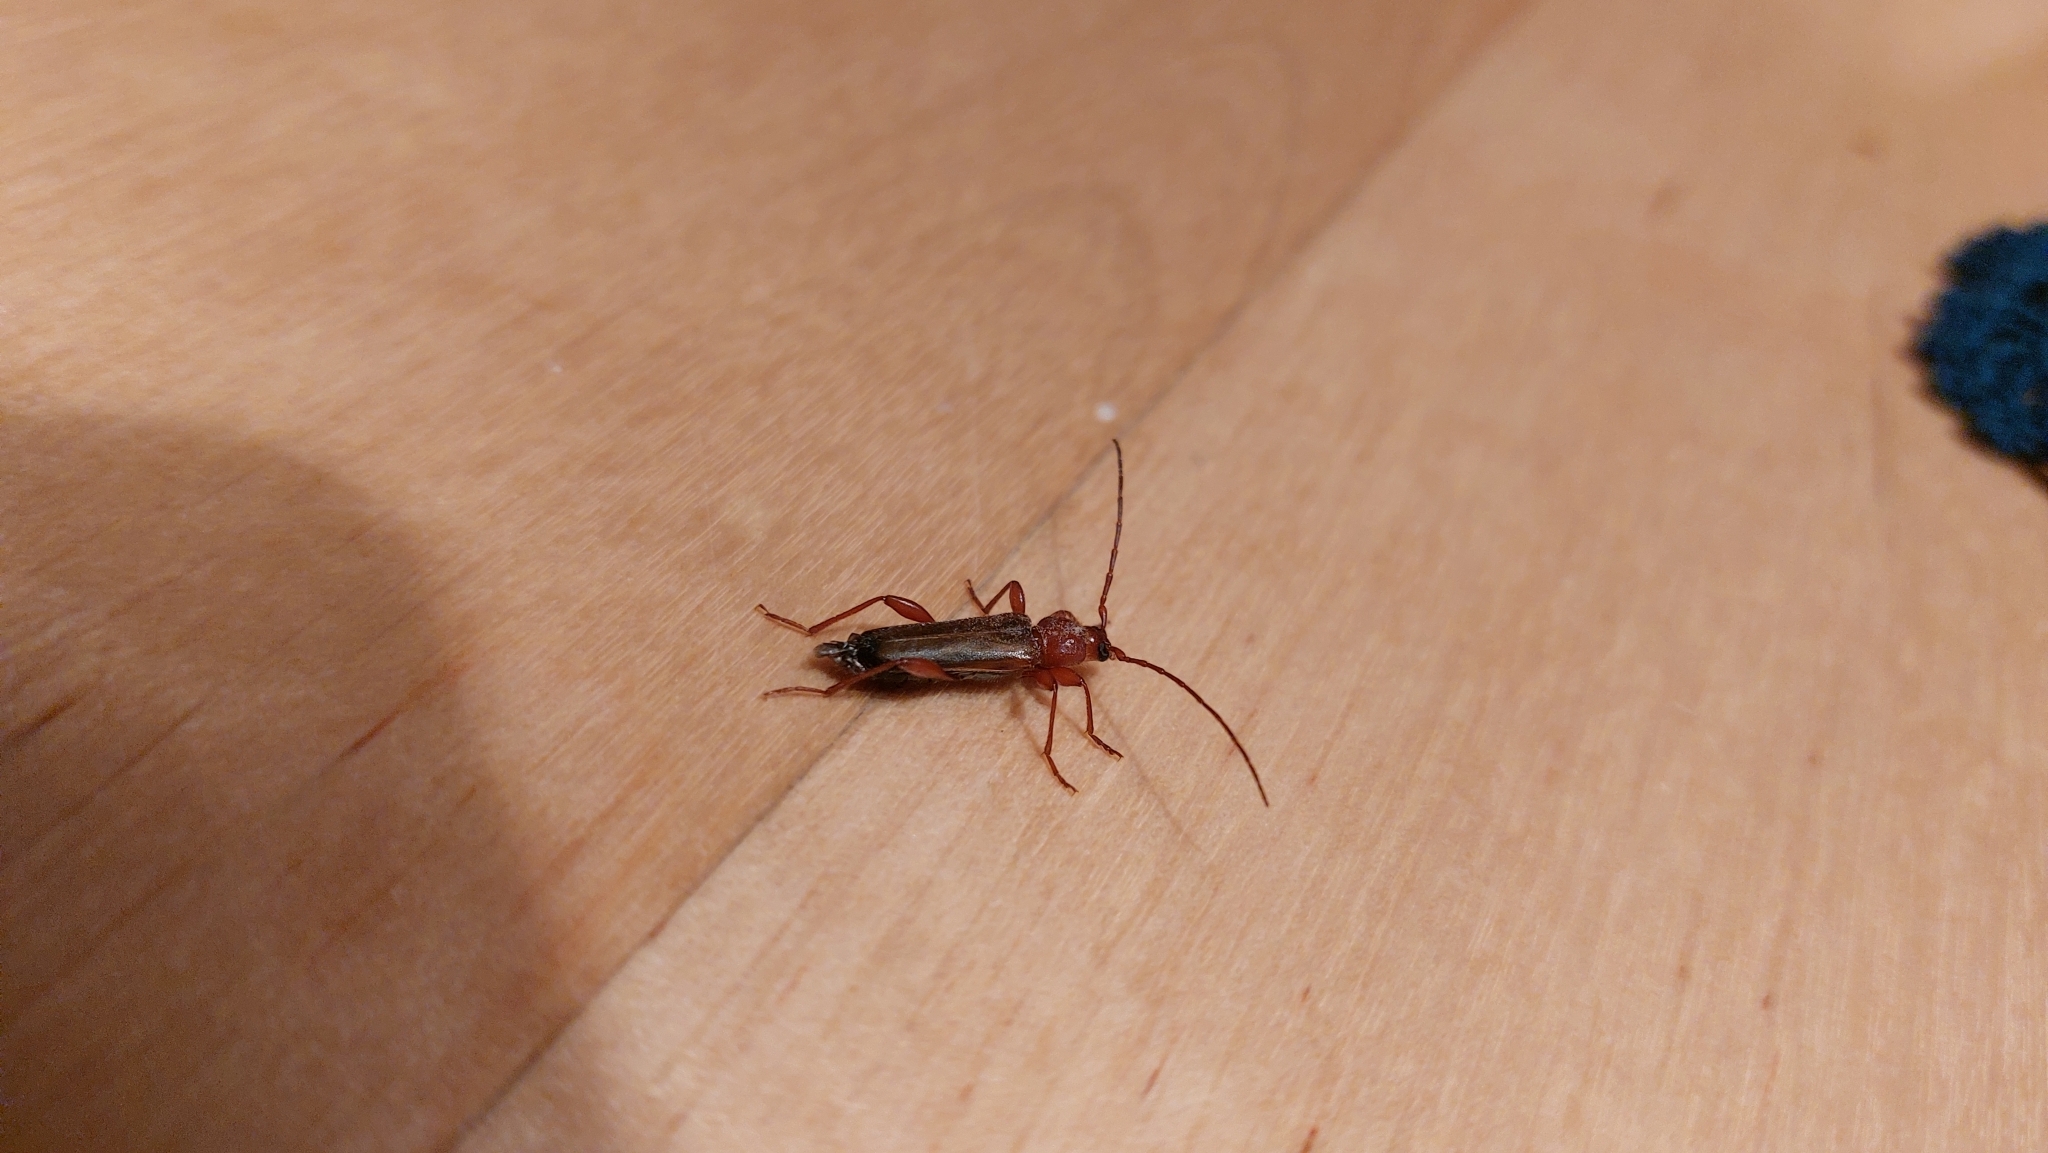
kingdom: Animalia
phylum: Arthropoda
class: Insecta
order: Coleoptera
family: Cerambycidae
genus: Phymatodes
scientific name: Phymatodes testaceus
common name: Long-horned beetle
